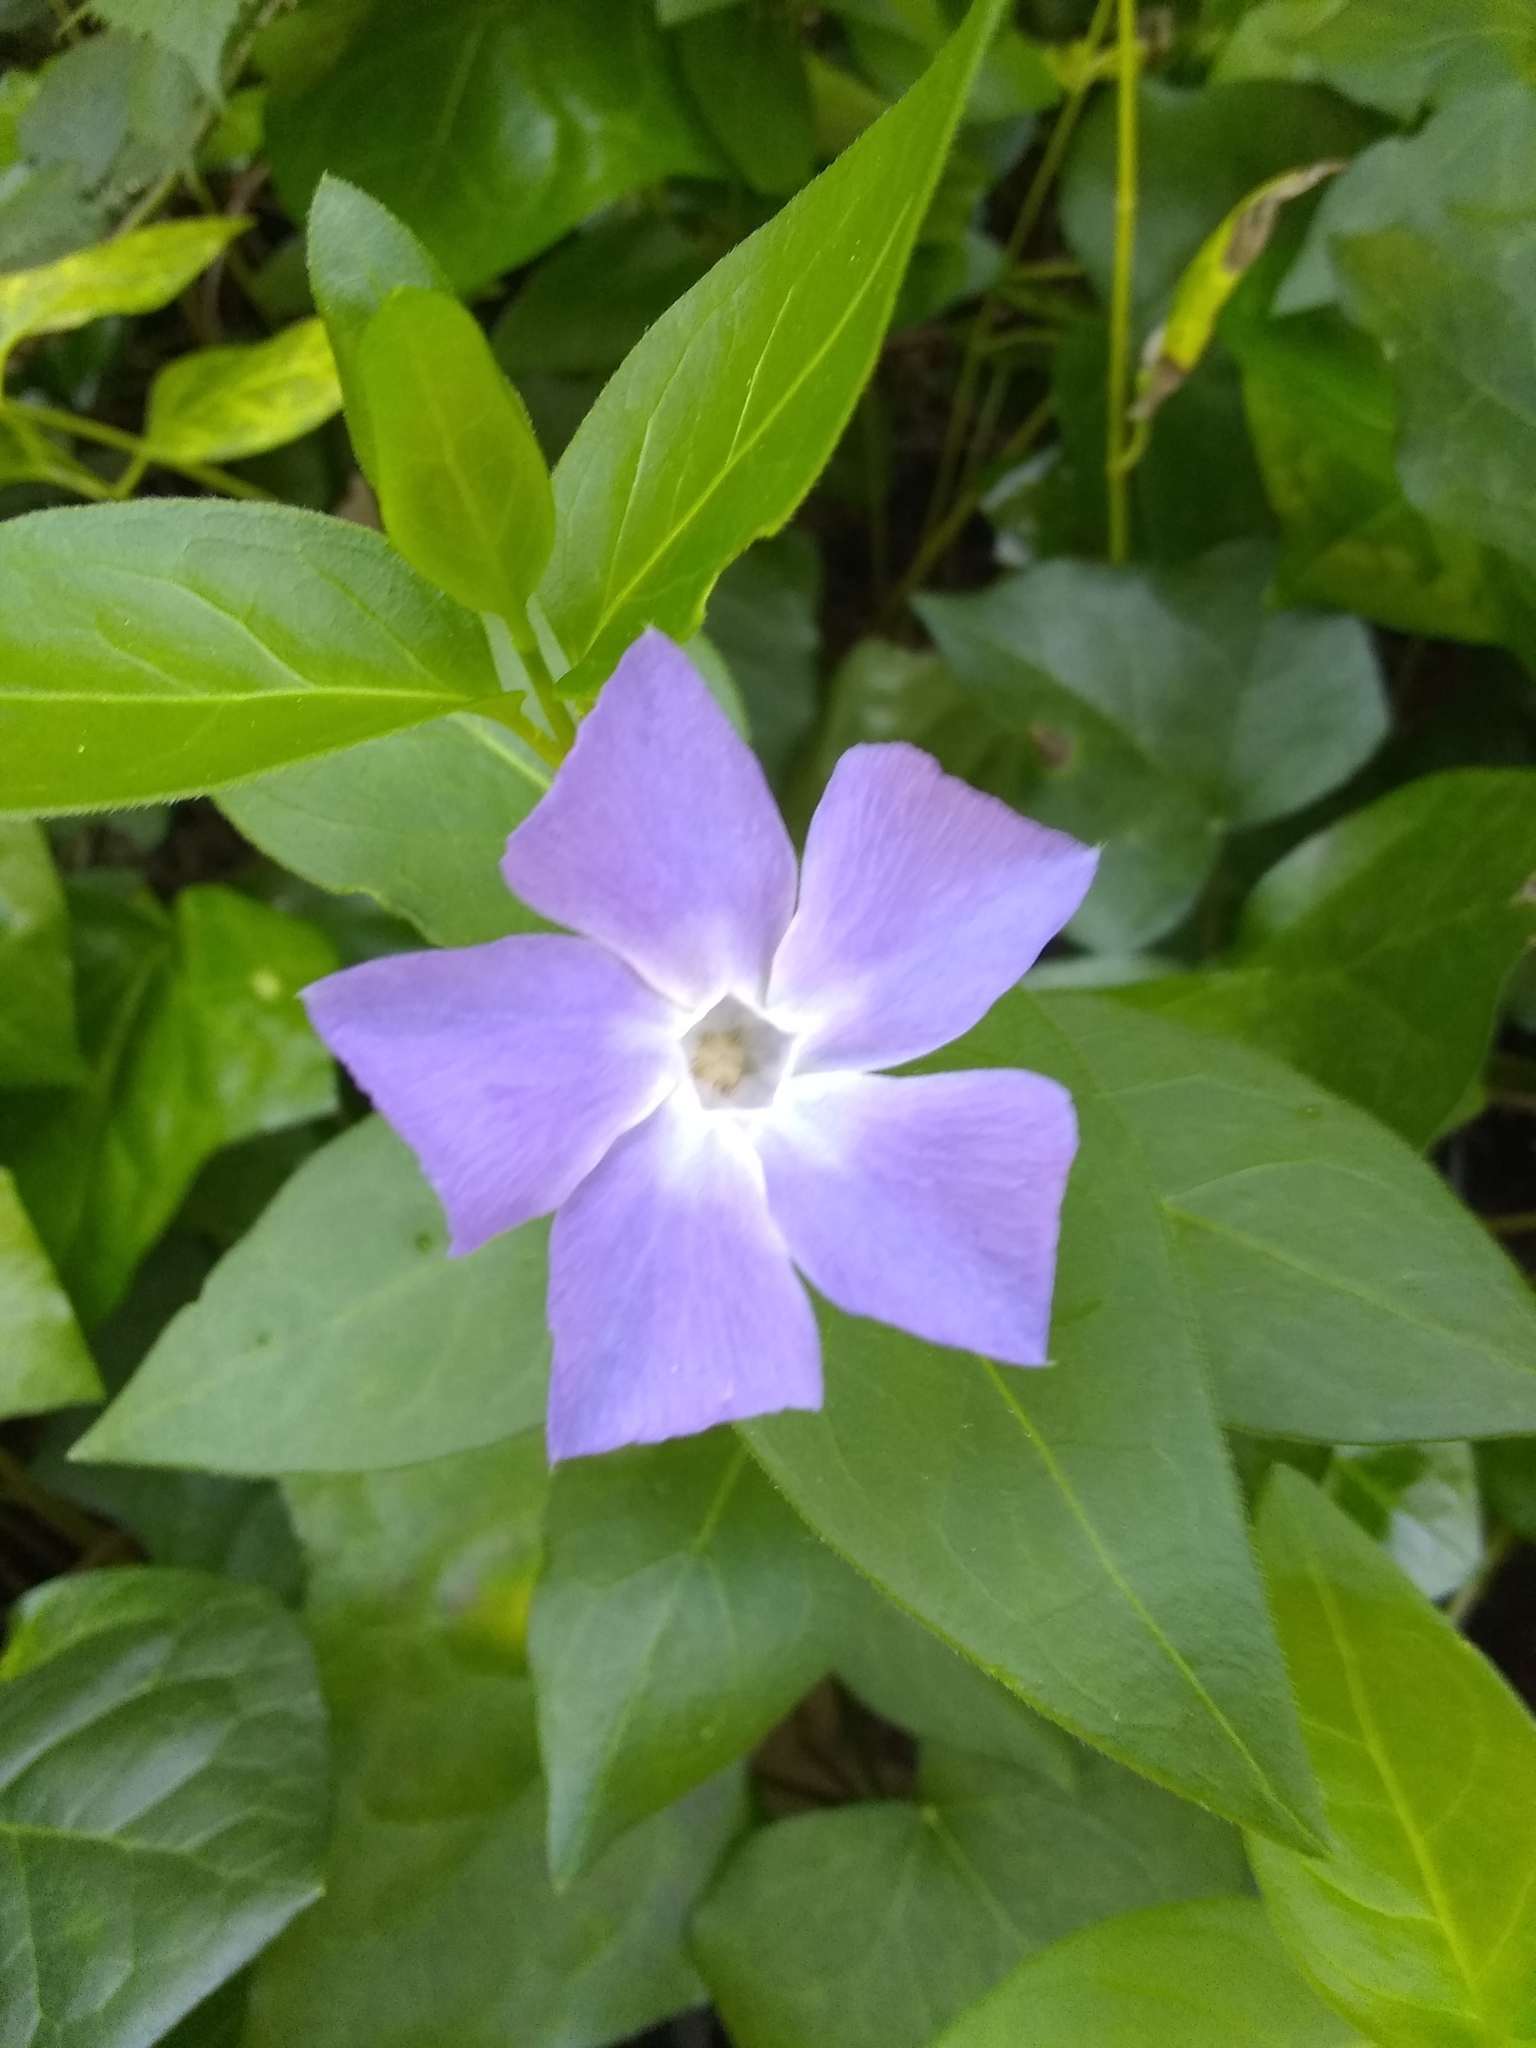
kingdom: Plantae
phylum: Tracheophyta
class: Magnoliopsida
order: Gentianales
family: Apocynaceae
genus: Vinca
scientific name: Vinca major
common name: Greater periwinkle
